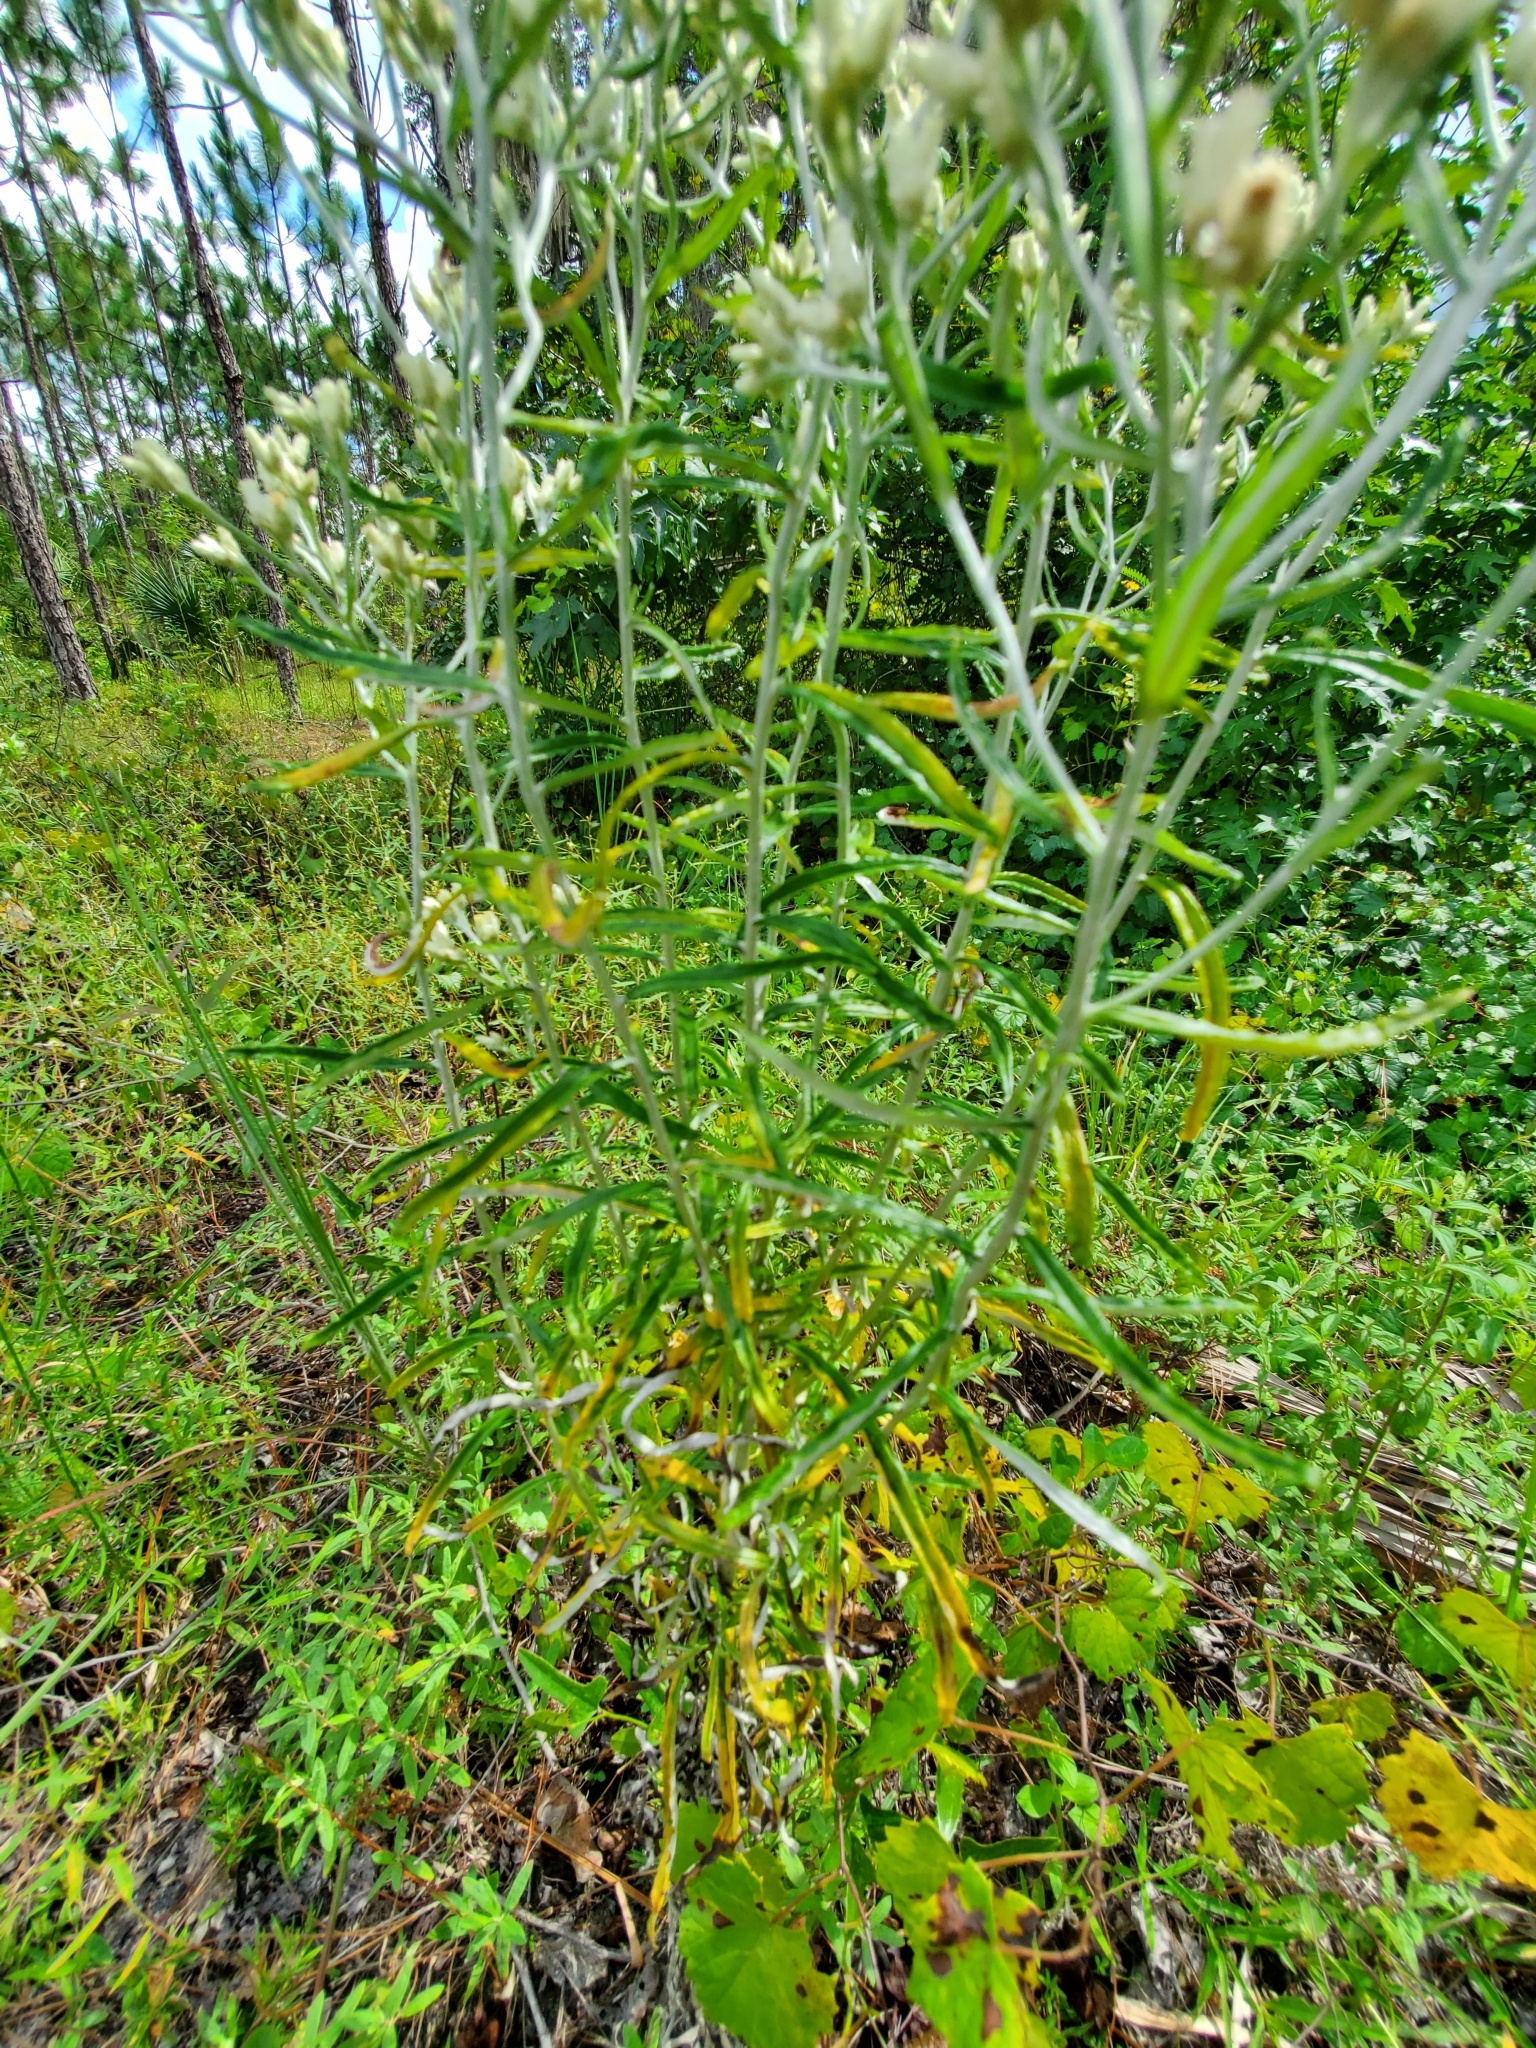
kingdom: Plantae
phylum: Tracheophyta
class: Magnoliopsida
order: Asterales
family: Asteraceae
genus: Pseudognaphalium
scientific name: Pseudognaphalium obtusifolium
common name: Eastern rabbit-tobacco
